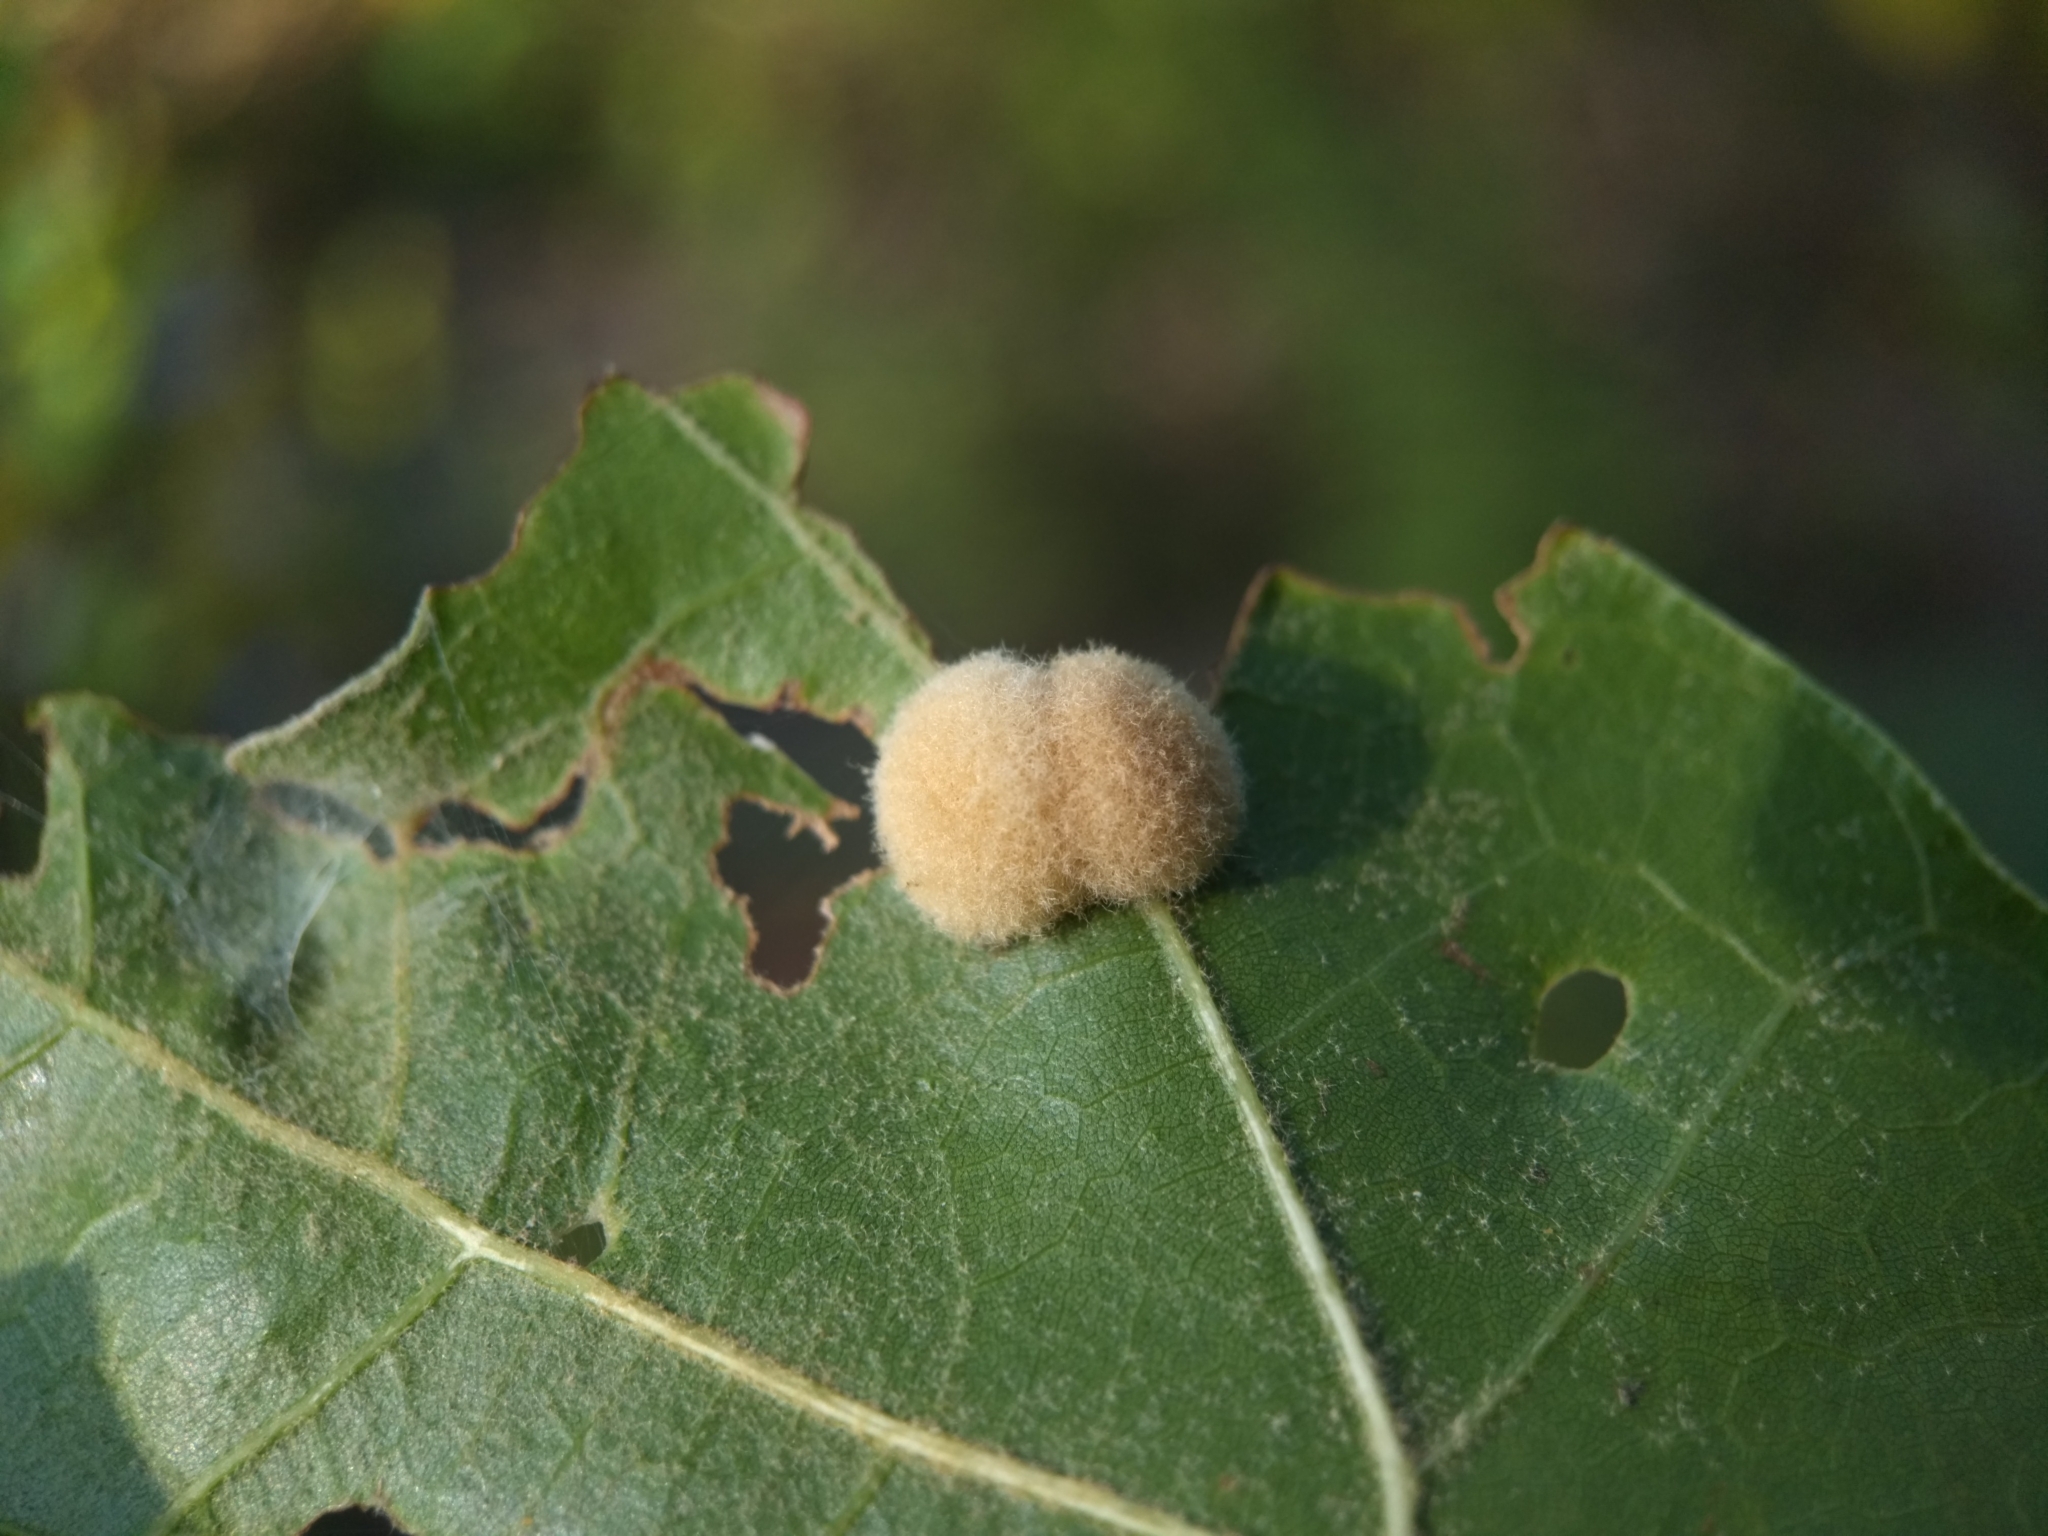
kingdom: Animalia
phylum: Arthropoda
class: Insecta
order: Hymenoptera
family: Cynipidae
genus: Callirhytis
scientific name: Callirhytis
